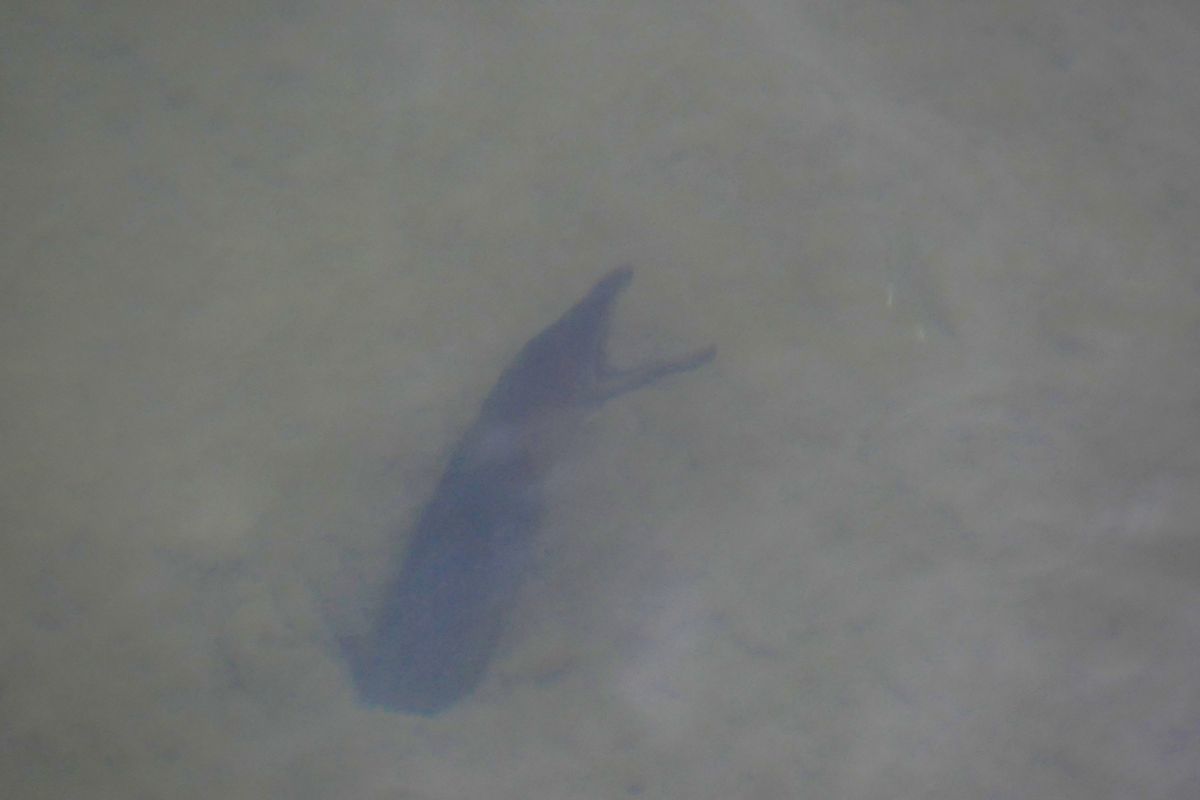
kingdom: Animalia
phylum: Chordata
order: Anguilliformes
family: Muraenidae
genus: Strophidon
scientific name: Strophidon sathete
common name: Giant slender moray
